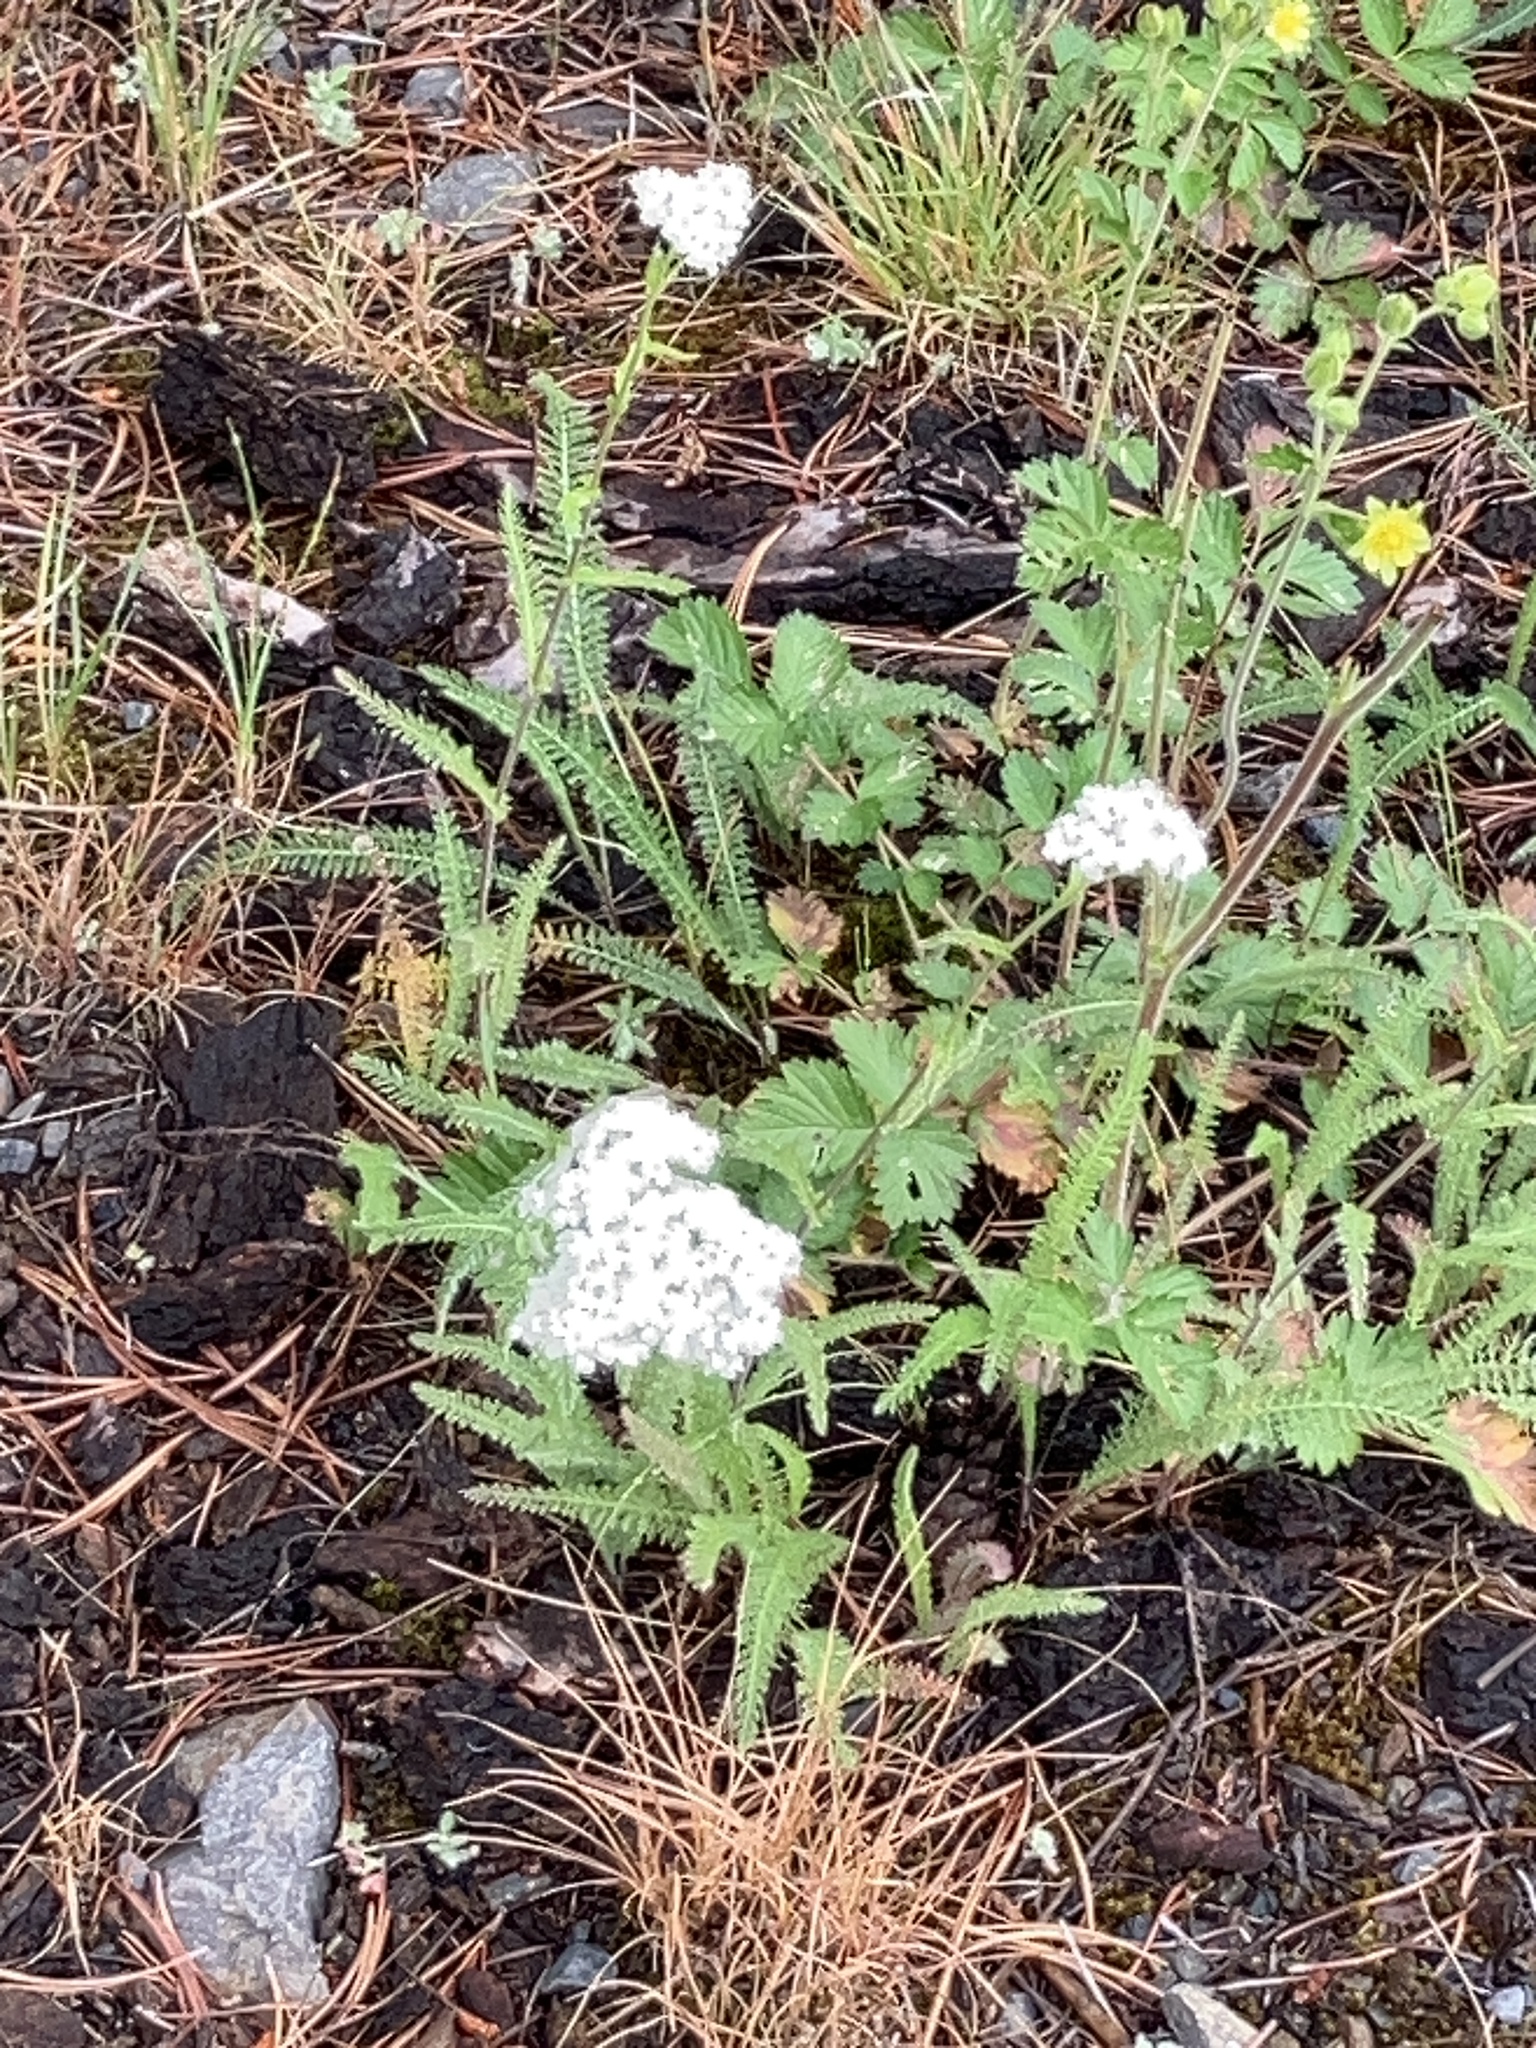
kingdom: Plantae
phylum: Tracheophyta
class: Magnoliopsida
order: Asterales
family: Asteraceae
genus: Achillea
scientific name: Achillea millefolium
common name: Yarrow
